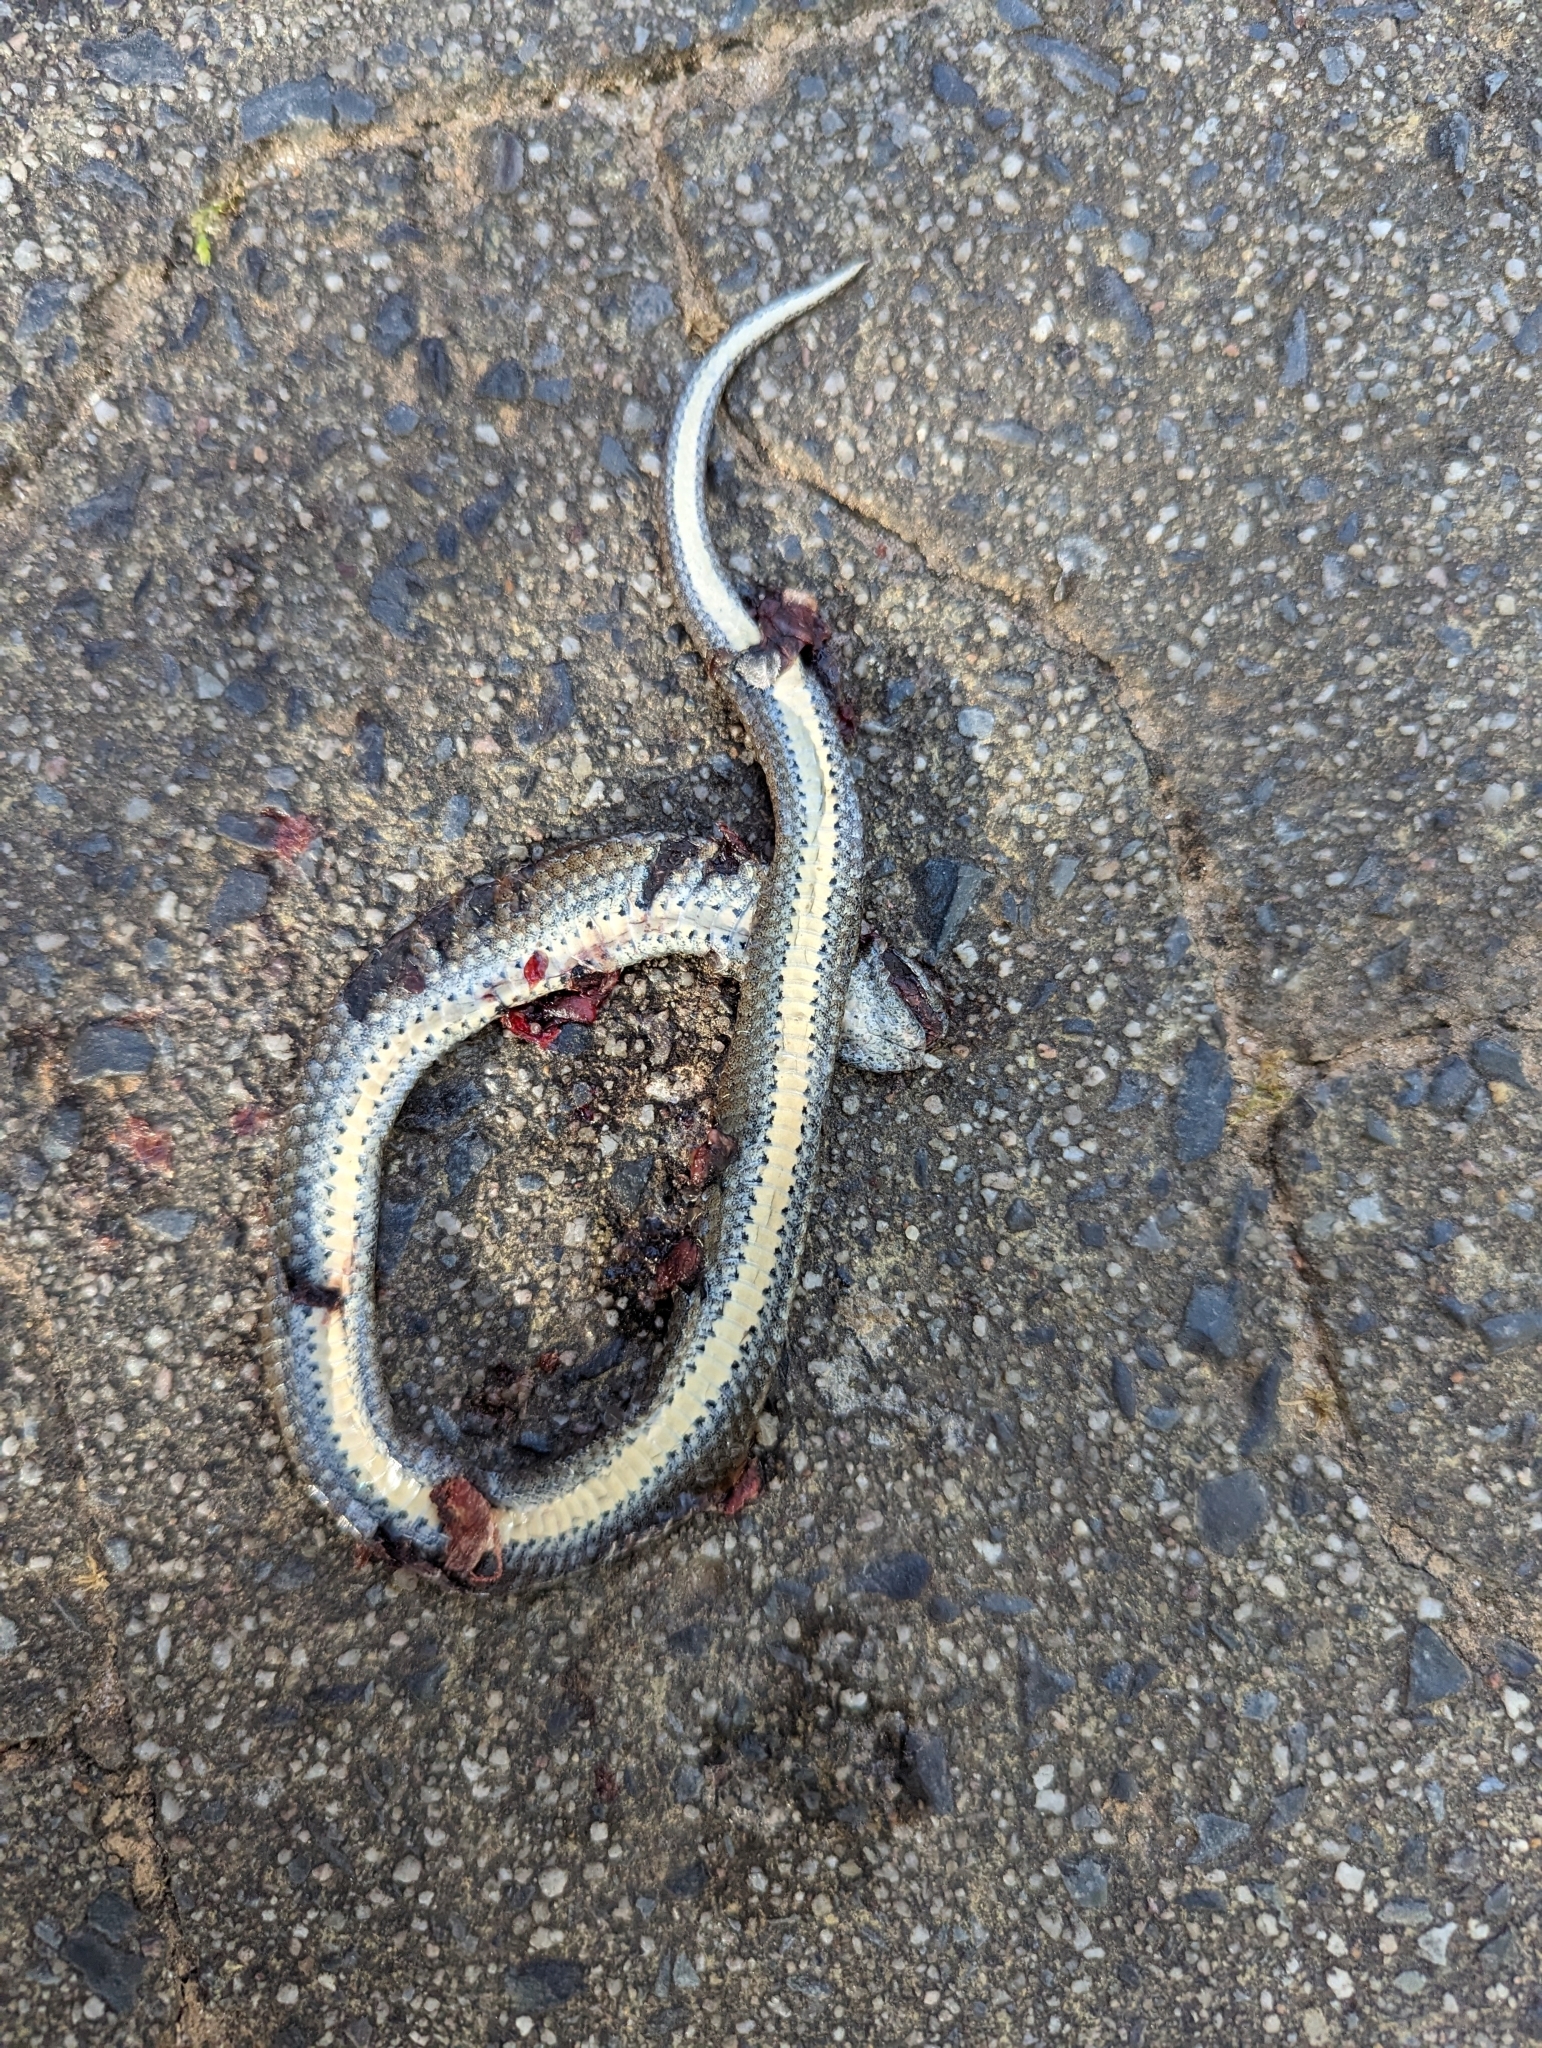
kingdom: Animalia
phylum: Chordata
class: Squamata
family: Pseudoxyrhophiidae
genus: Duberria
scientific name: Duberria lutrix
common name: Common slug eater
